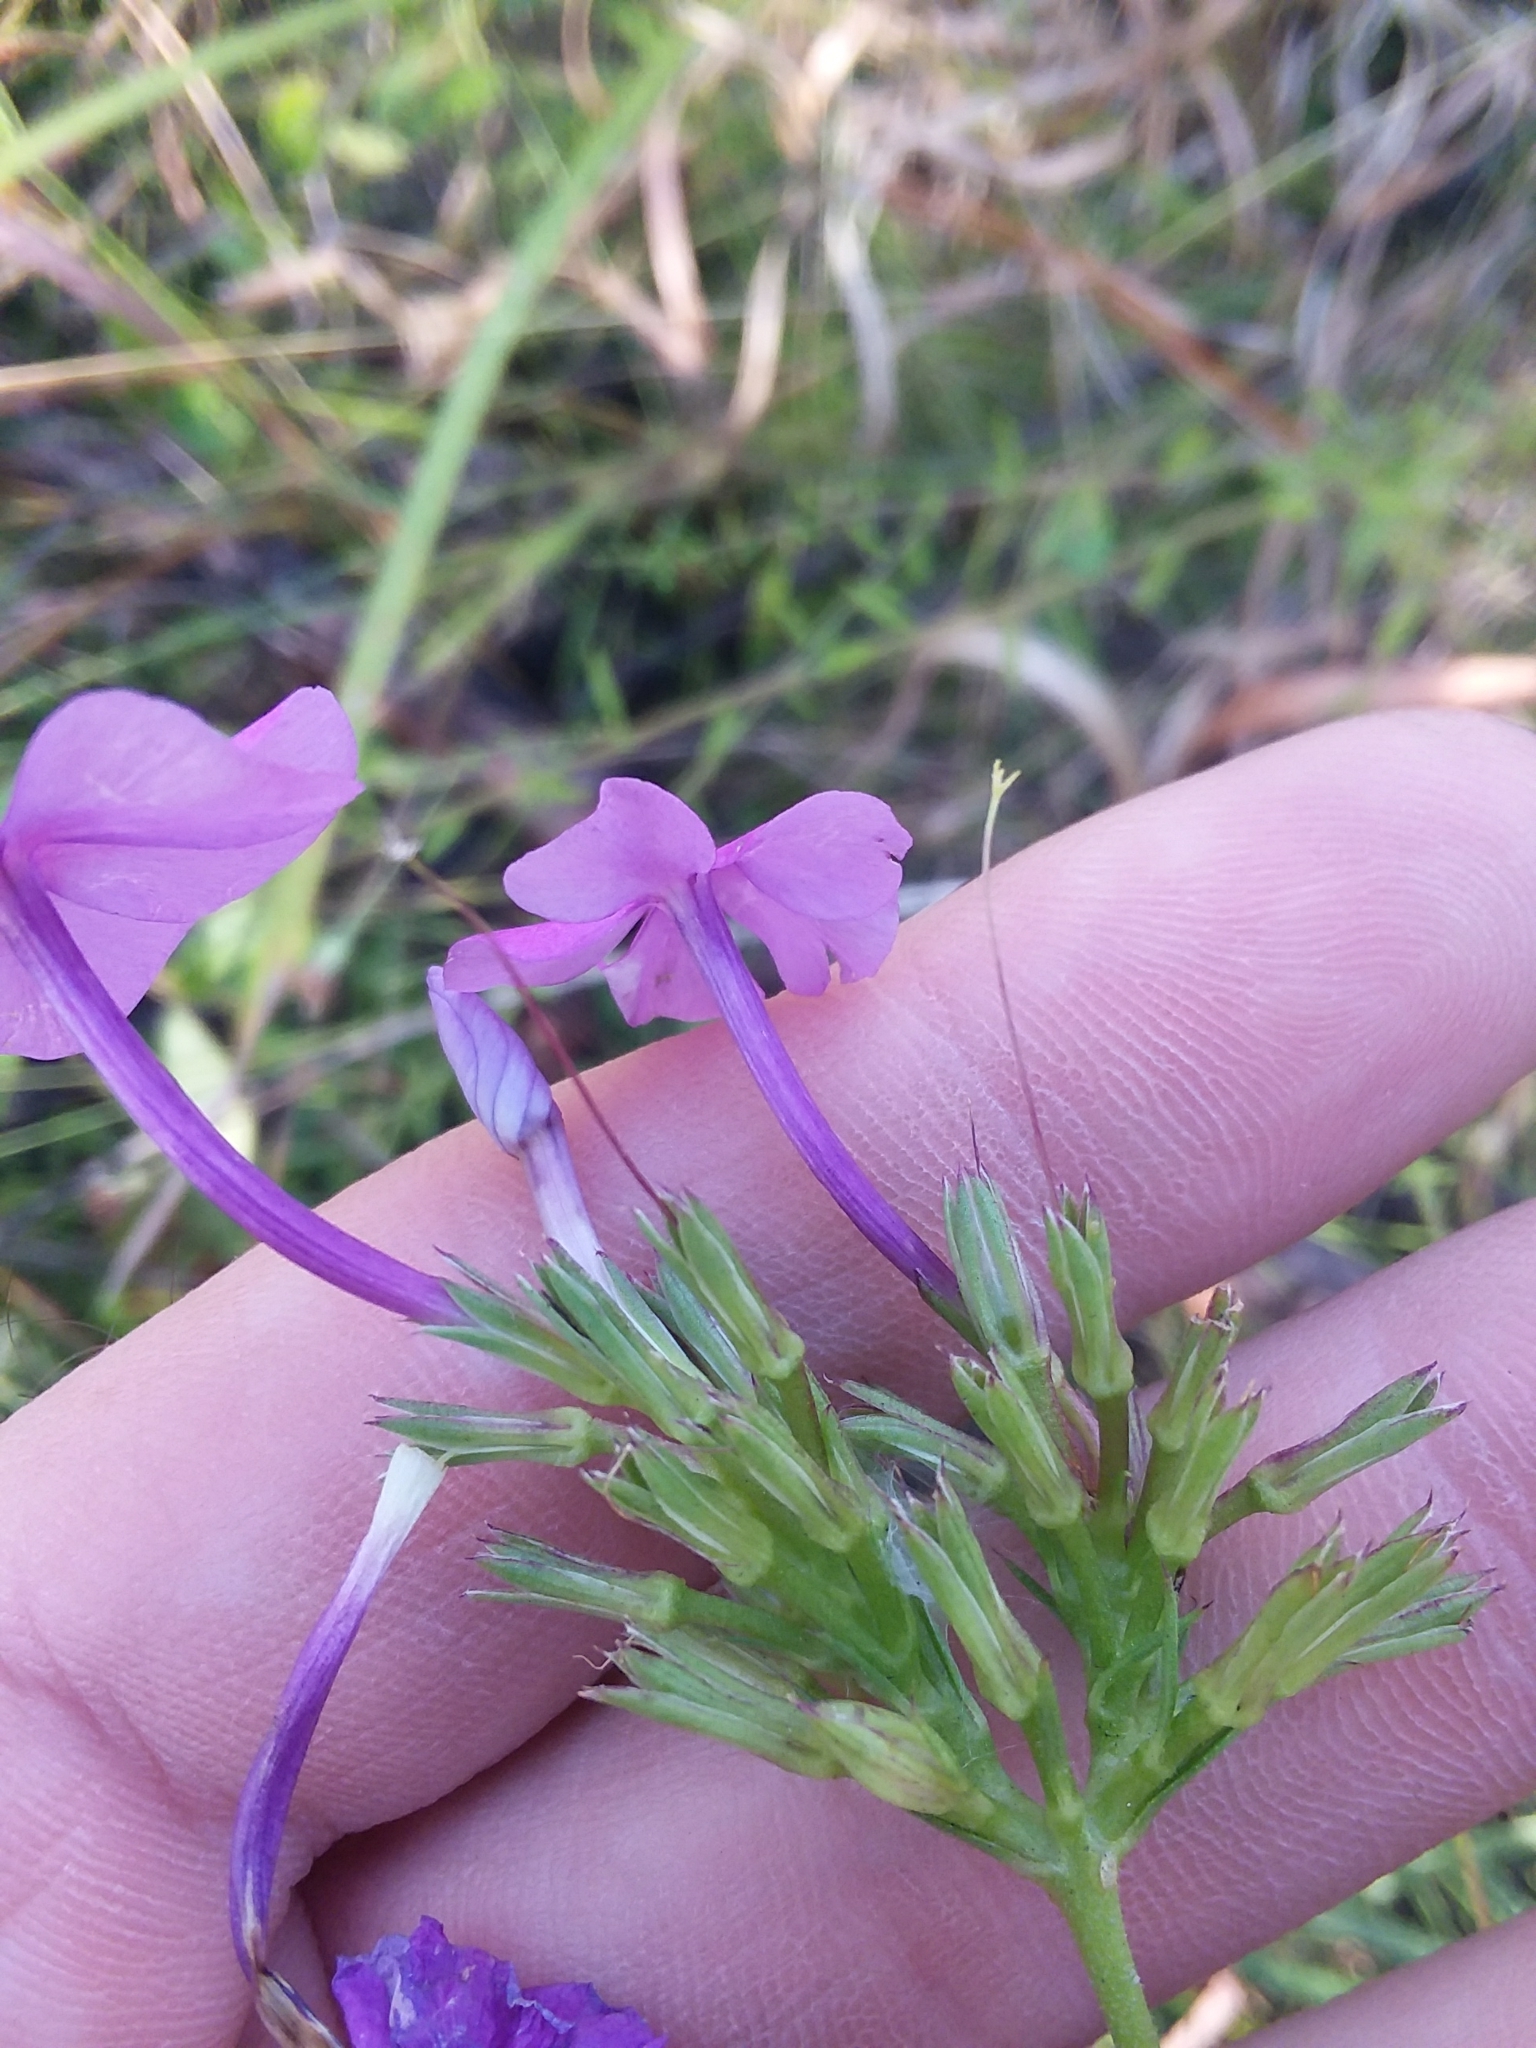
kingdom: Plantae
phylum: Tracheophyta
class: Magnoliopsida
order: Ericales
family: Polemoniaceae
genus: Phlox
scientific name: Phlox carolina
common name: Thick-leaf phlox
